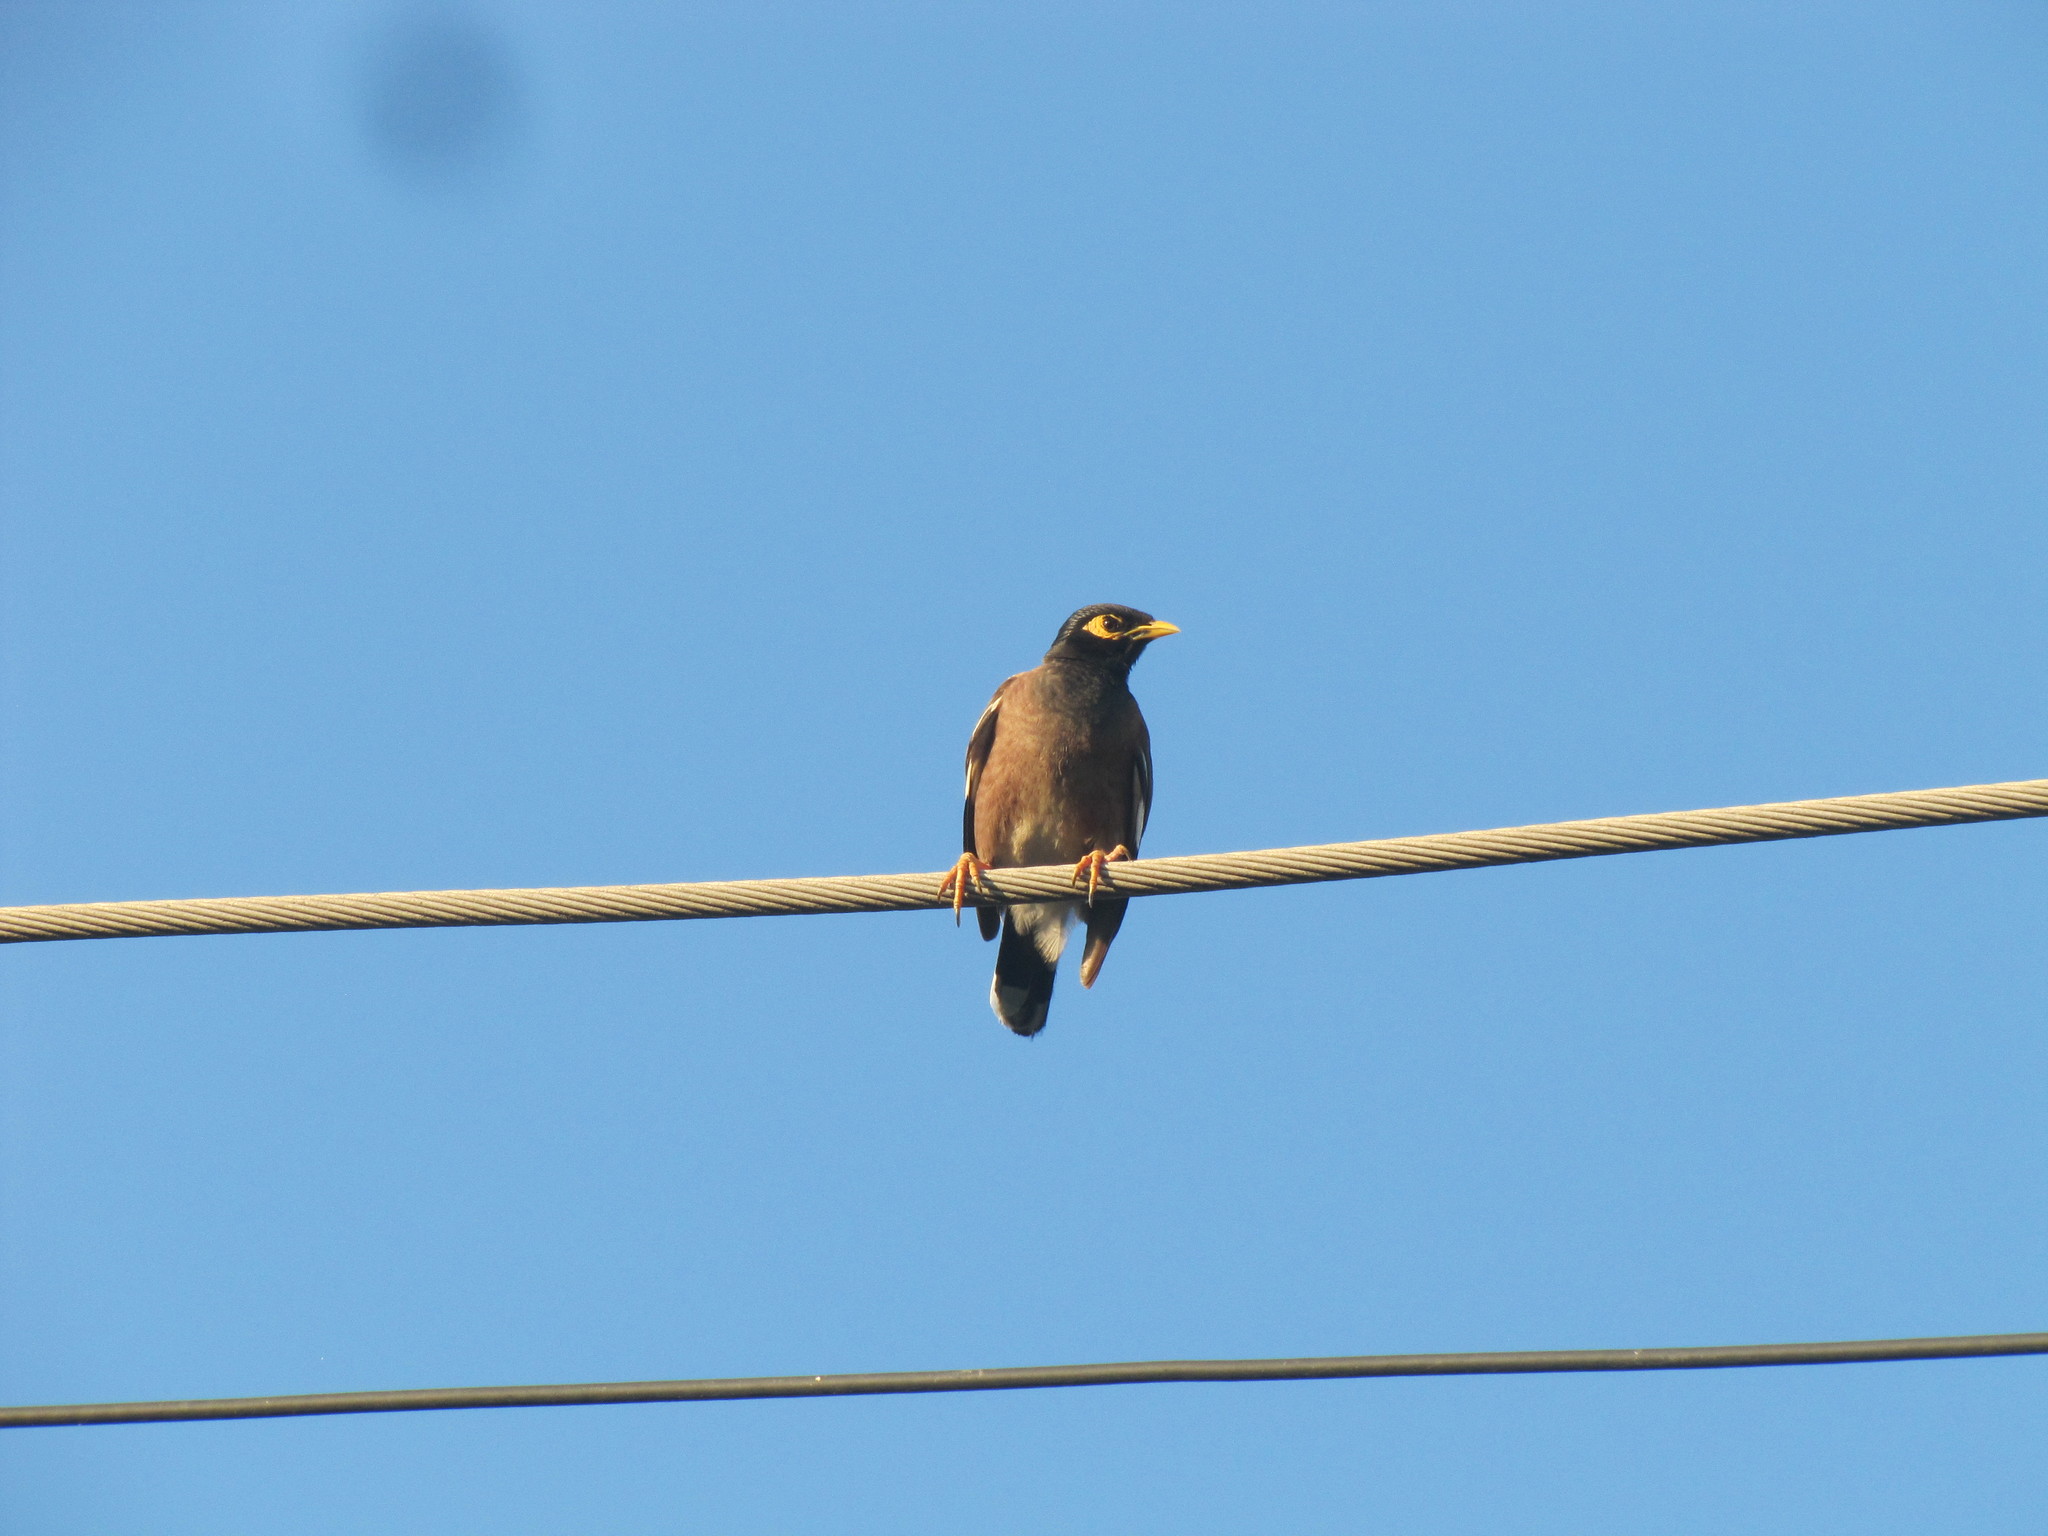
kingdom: Animalia
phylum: Chordata
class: Aves
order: Passeriformes
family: Sturnidae
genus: Acridotheres
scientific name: Acridotheres tristis
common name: Common myna
